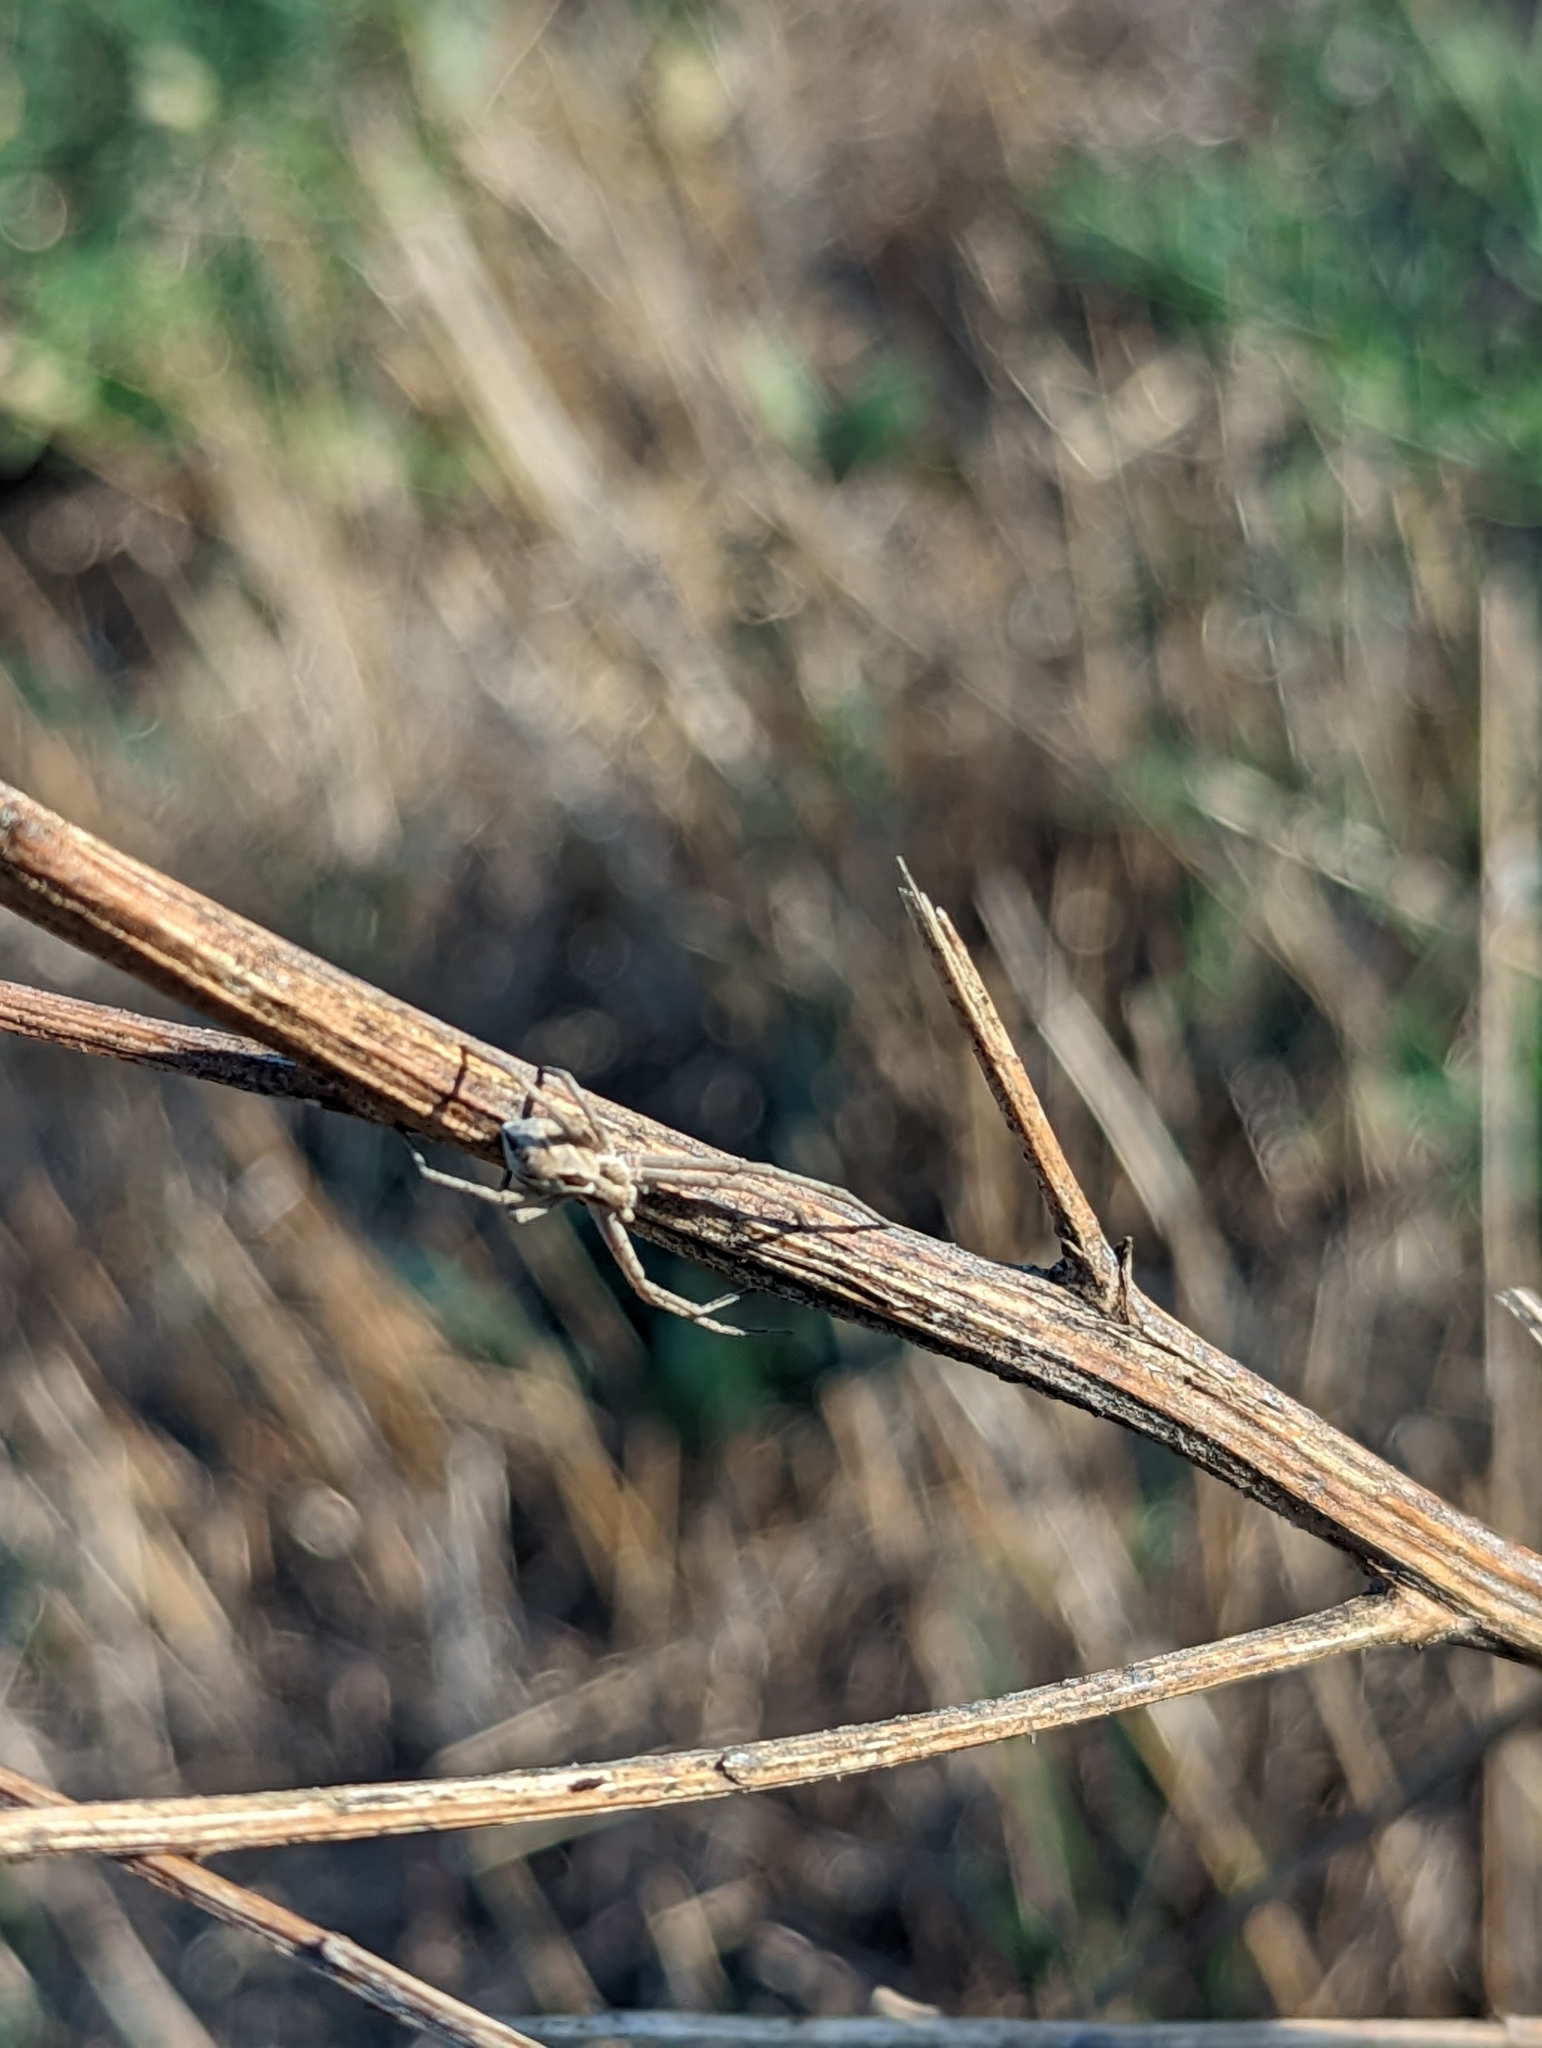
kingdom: Animalia
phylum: Arthropoda
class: Arachnida
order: Araneae
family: Philodromidae
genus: Rhysodromus
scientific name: Rhysodromus histrio
